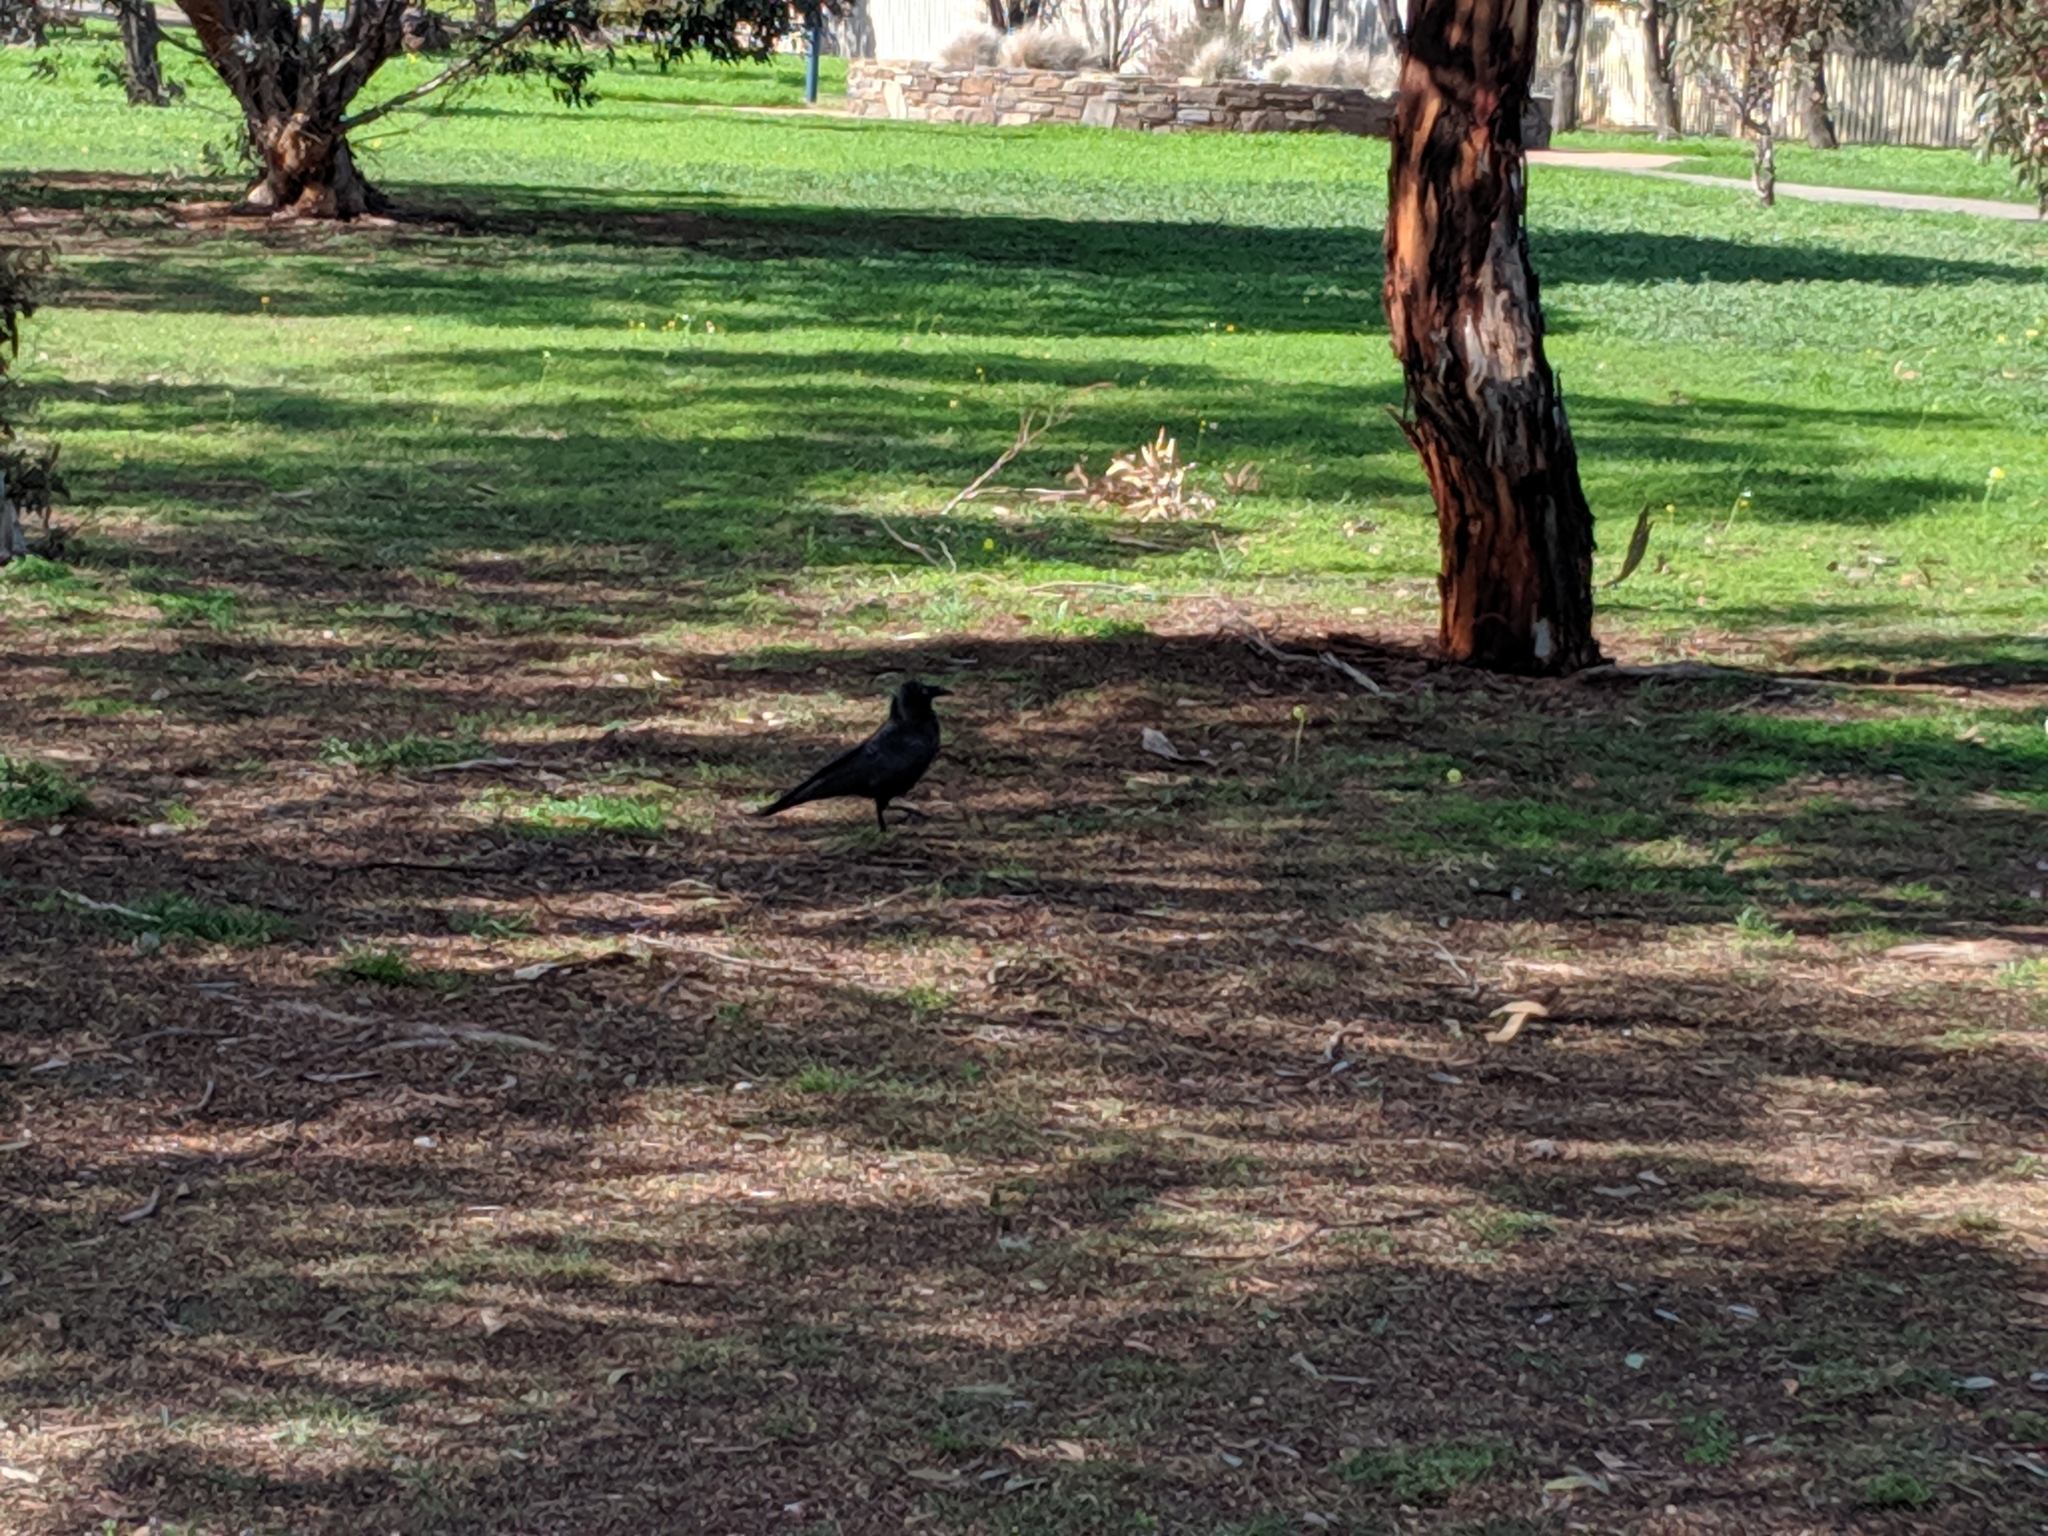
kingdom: Animalia
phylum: Chordata
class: Aves
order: Passeriformes
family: Corvidae
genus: Corvus
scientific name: Corvus mellori
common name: Little raven
